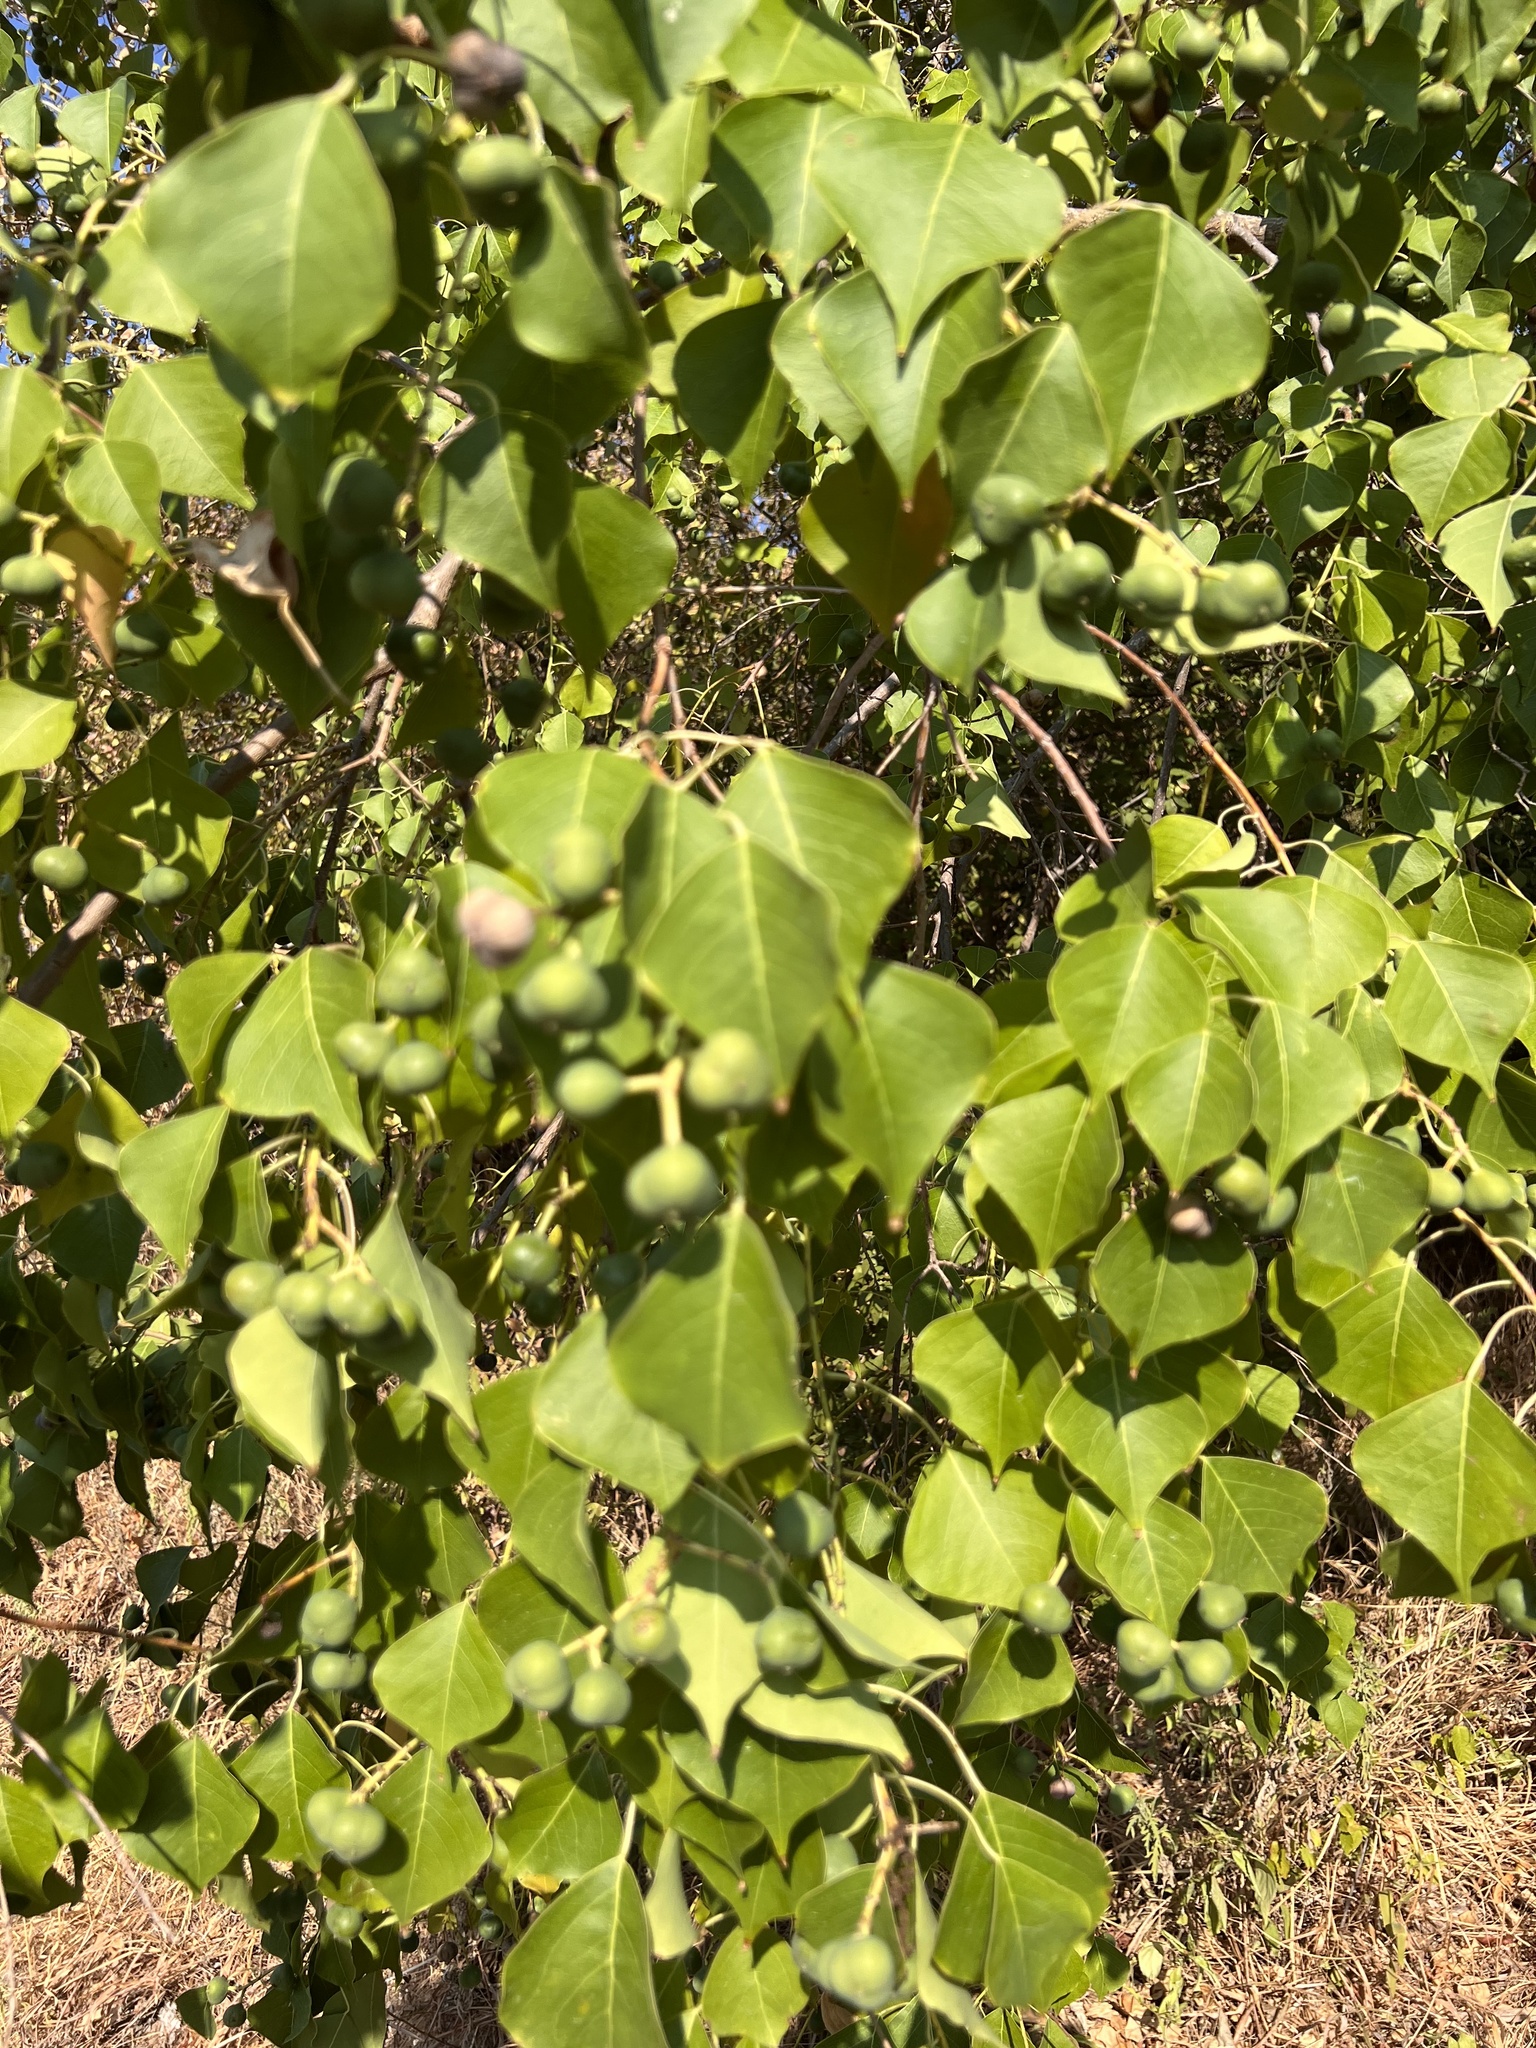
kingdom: Plantae
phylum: Tracheophyta
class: Magnoliopsida
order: Malpighiales
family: Euphorbiaceae
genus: Triadica
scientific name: Triadica sebifera
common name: Chinese tallow
